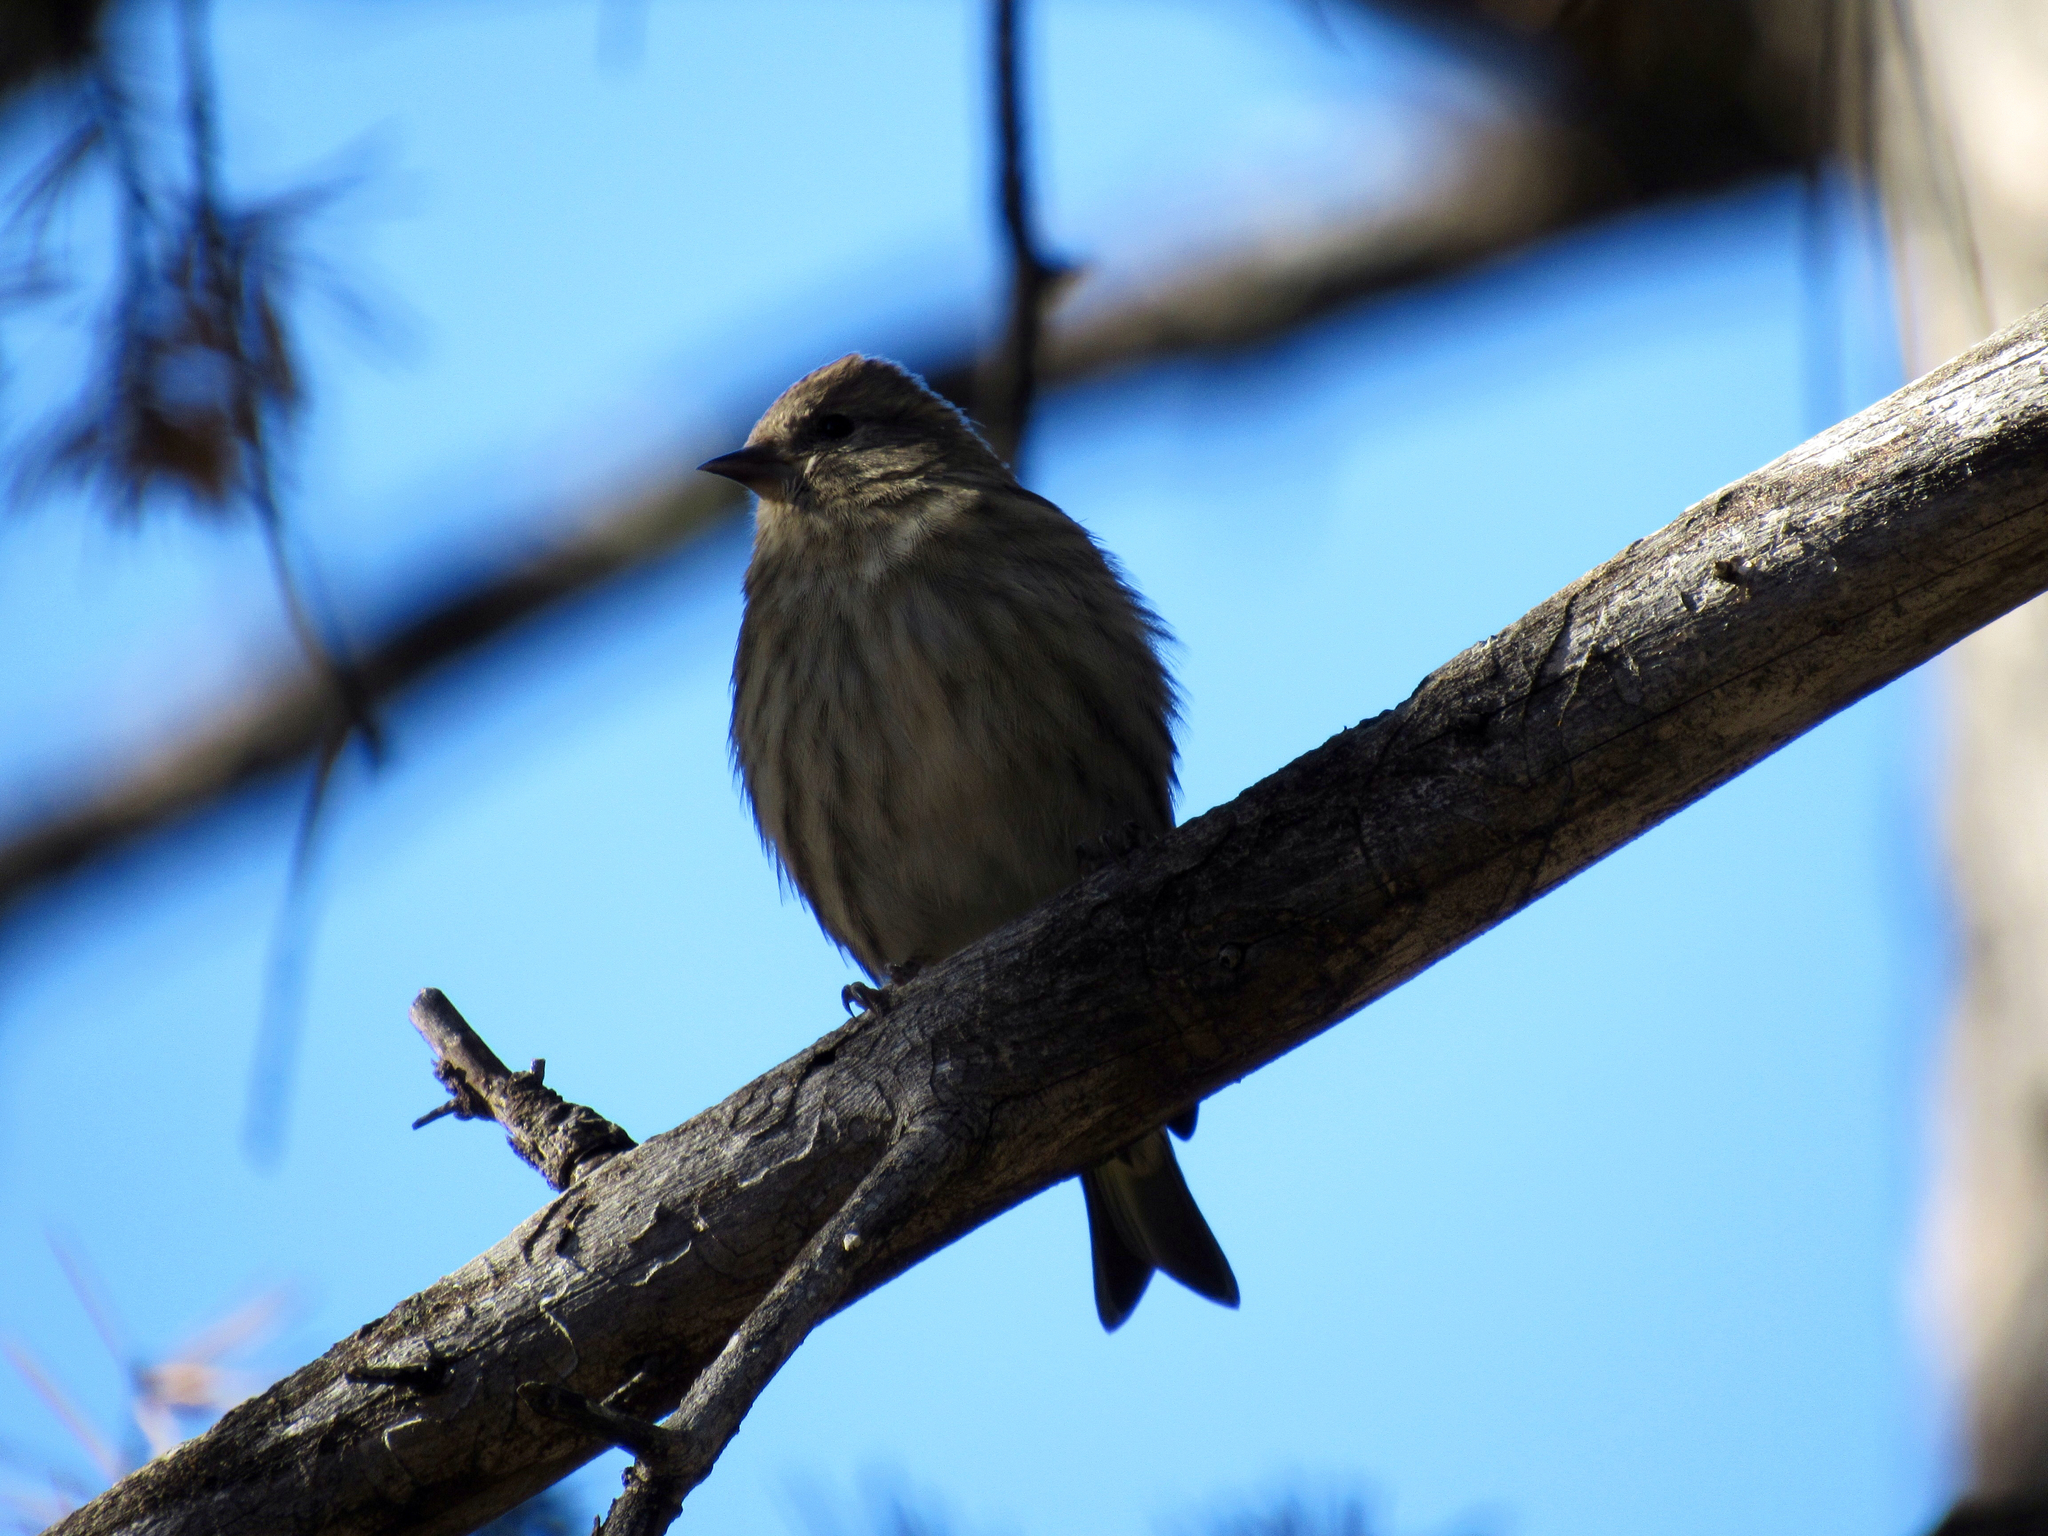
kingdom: Animalia
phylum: Chordata
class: Aves
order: Passeriformes
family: Fringillidae
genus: Spinus
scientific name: Spinus pinus
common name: Pine siskin
